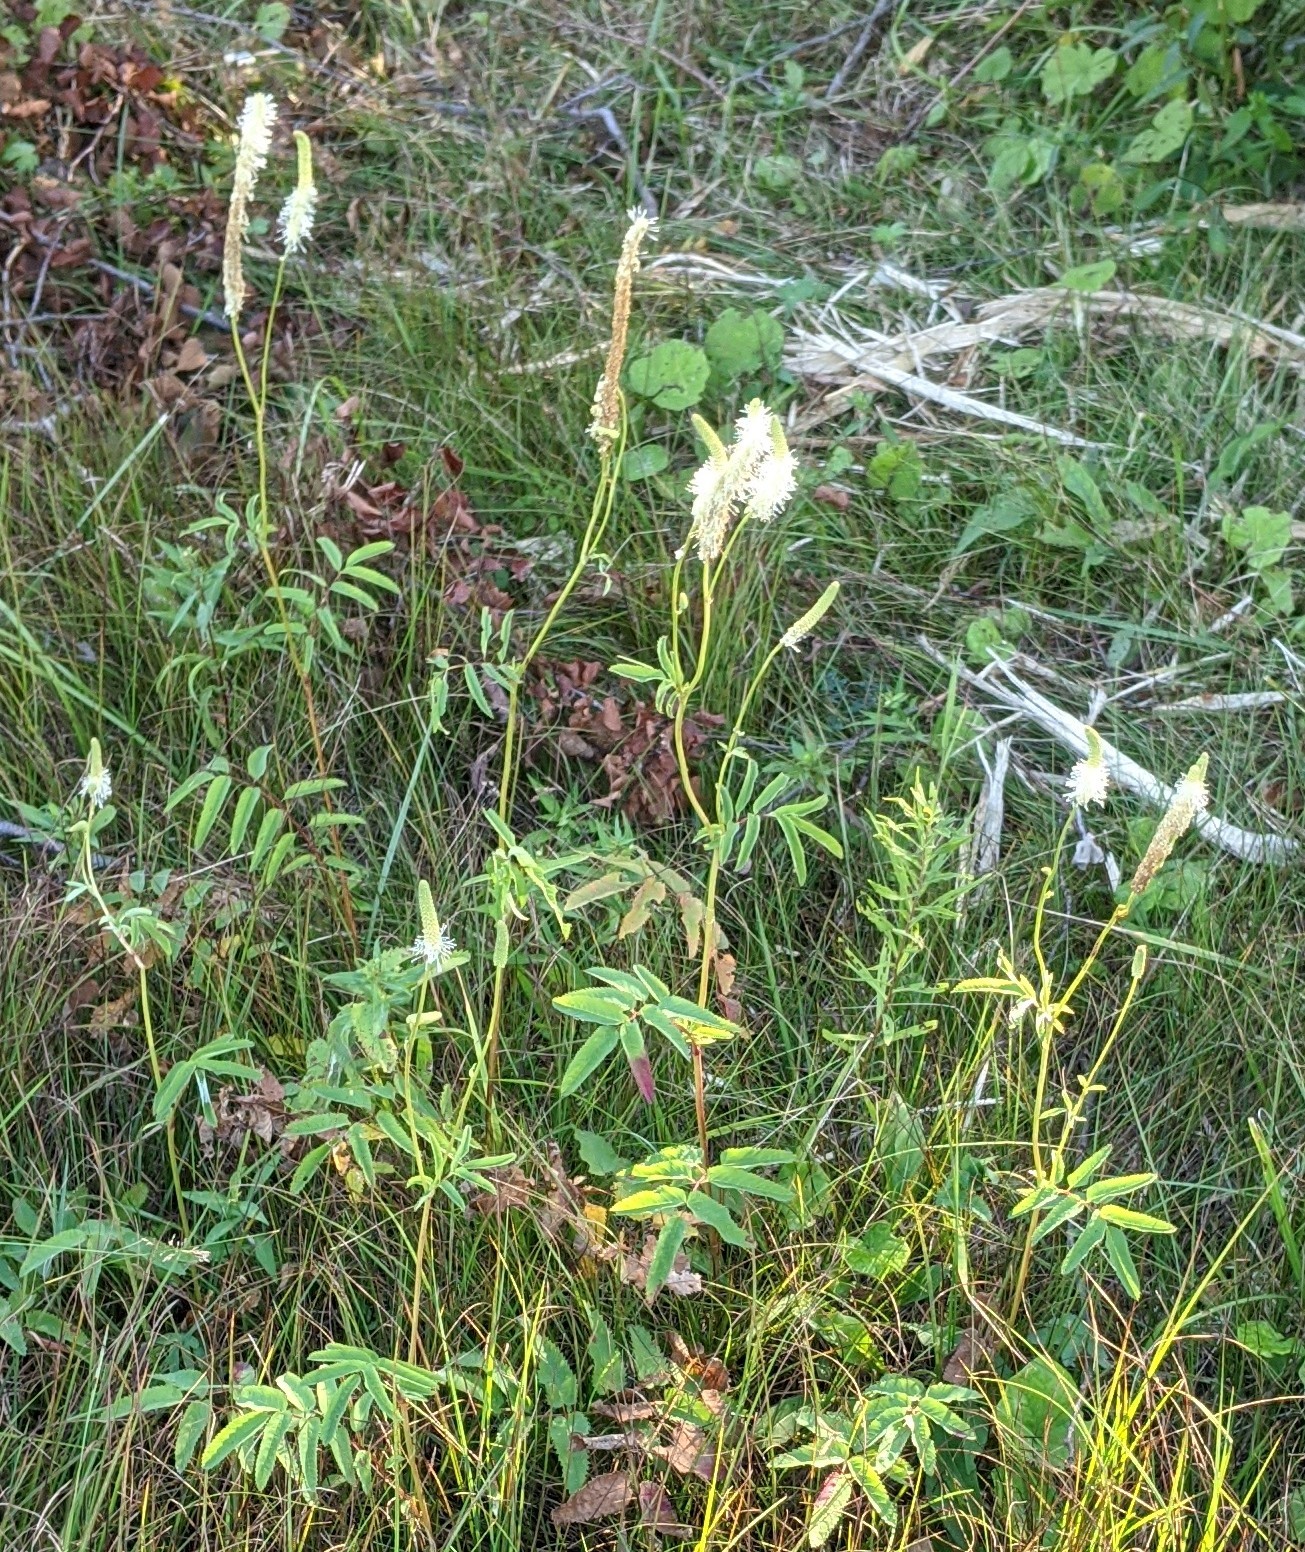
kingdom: Plantae
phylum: Tracheophyta
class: Magnoliopsida
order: Rosales
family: Rosaceae
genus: Sanguisorba
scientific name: Sanguisorba canadensis
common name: White burnet
